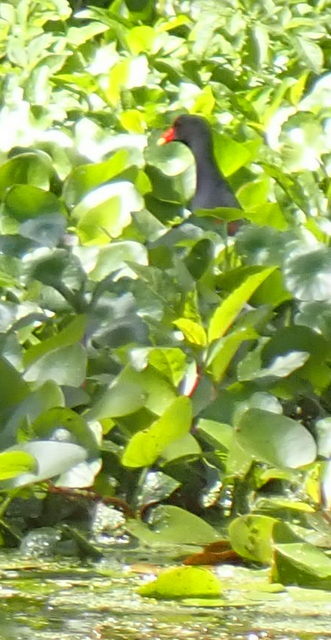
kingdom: Animalia
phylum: Chordata
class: Aves
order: Gruiformes
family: Rallidae
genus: Gallinula
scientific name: Gallinula chloropus
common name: Common moorhen
